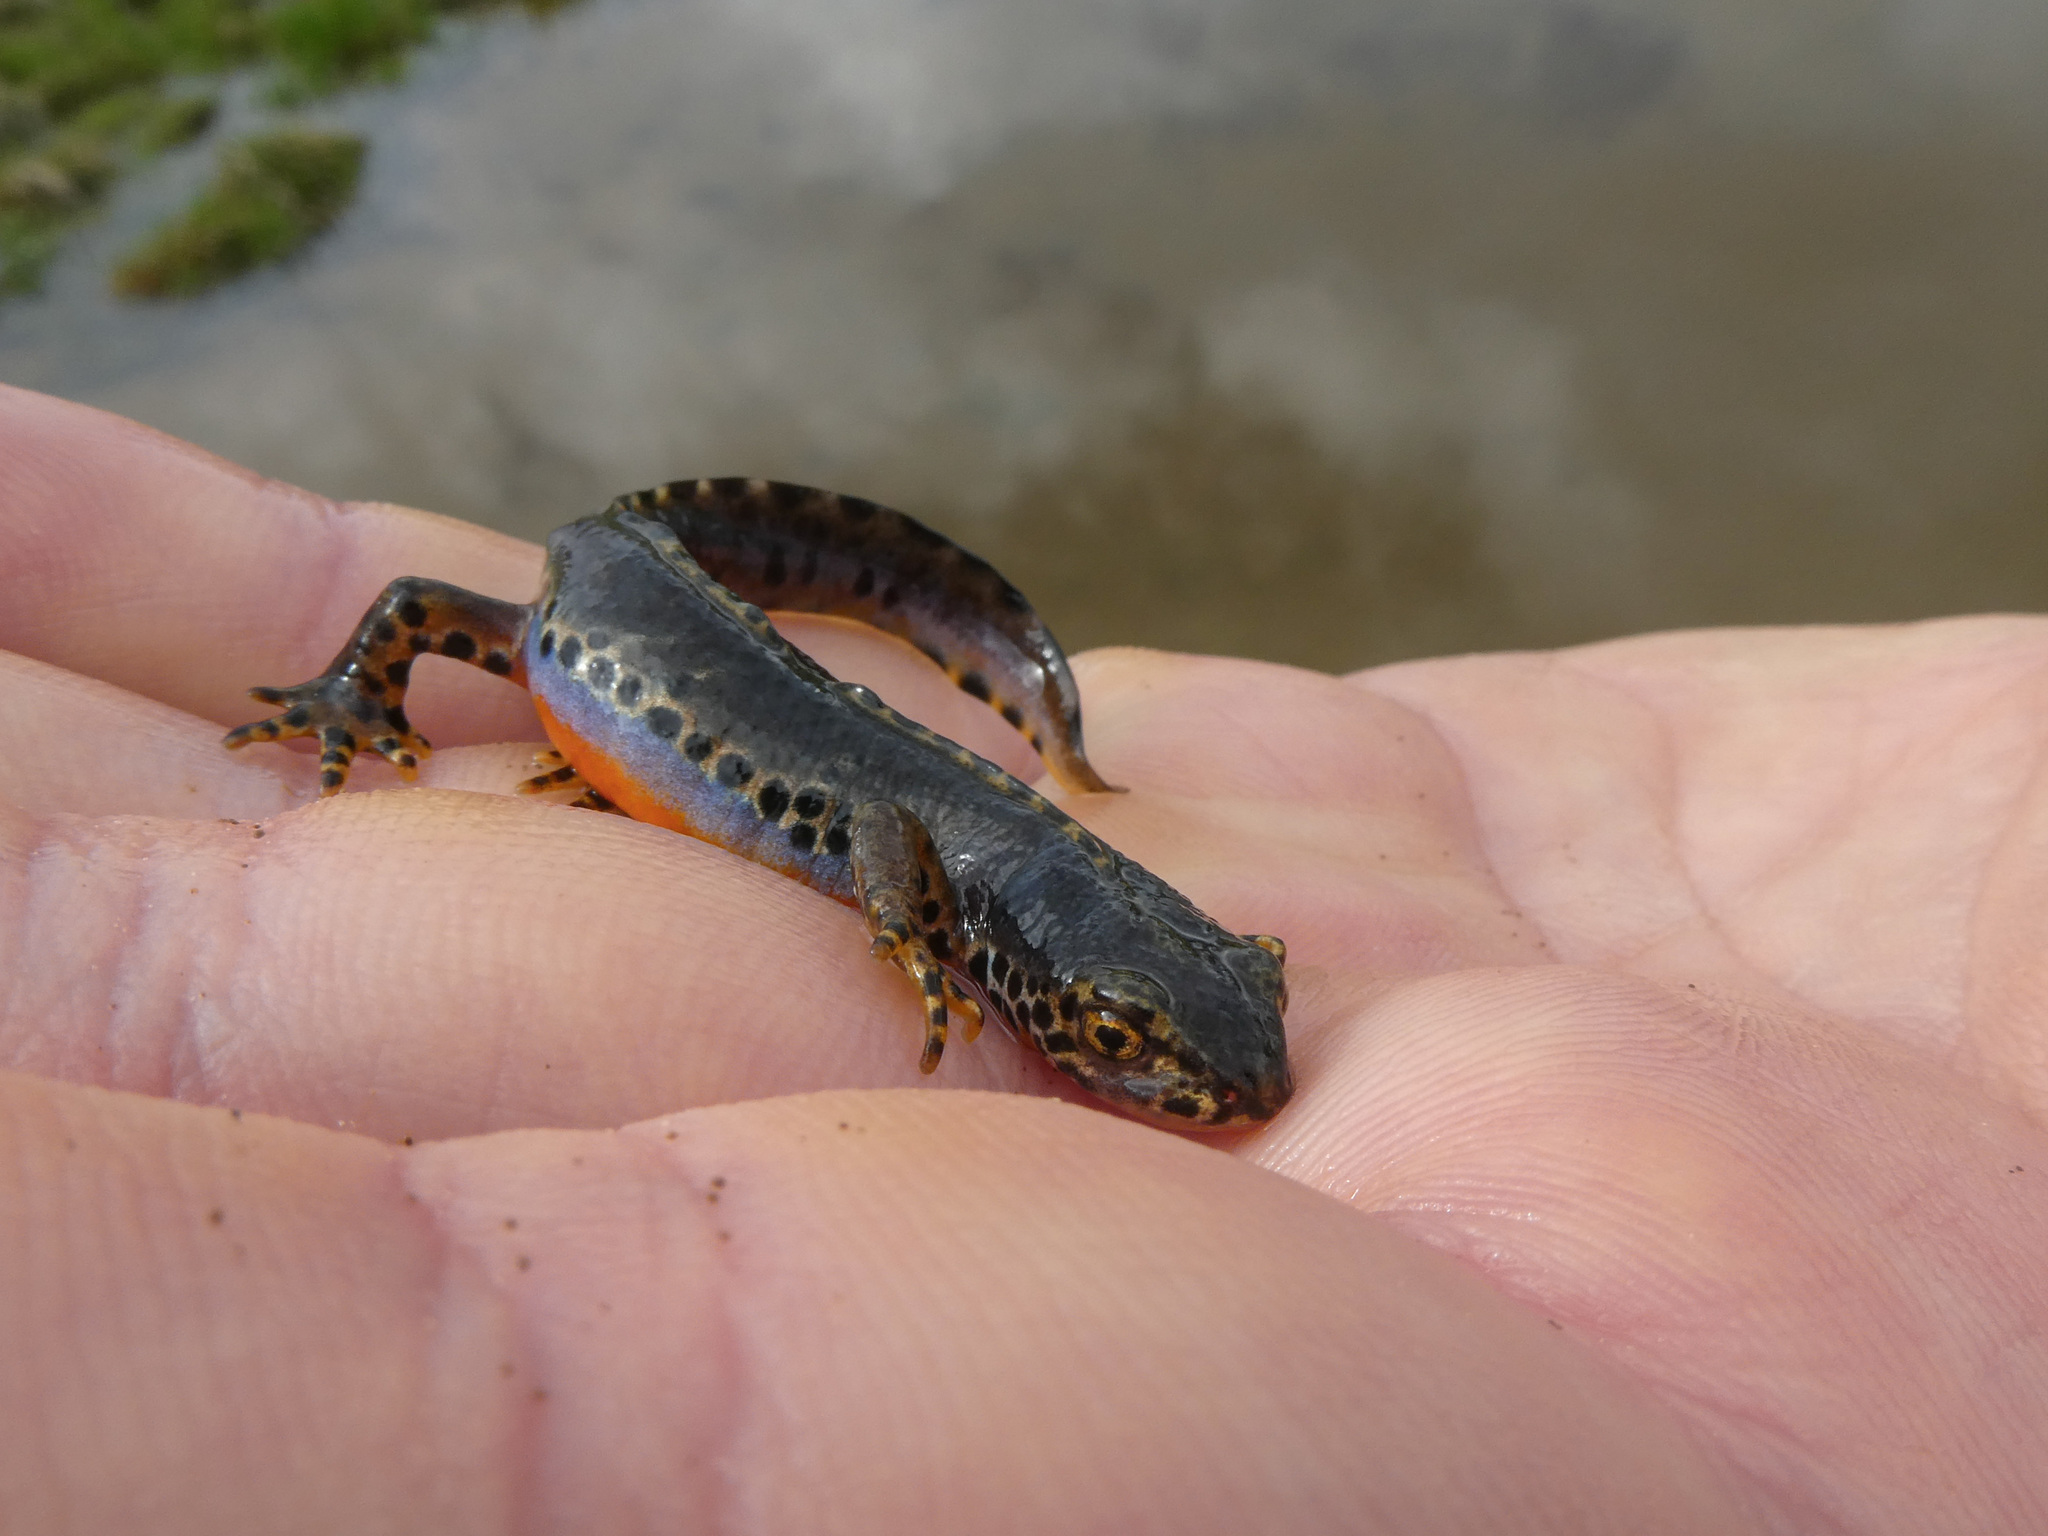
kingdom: Animalia
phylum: Chordata
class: Amphibia
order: Caudata
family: Salamandridae
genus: Ichthyosaura
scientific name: Ichthyosaura alpestris
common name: Alpine newt
